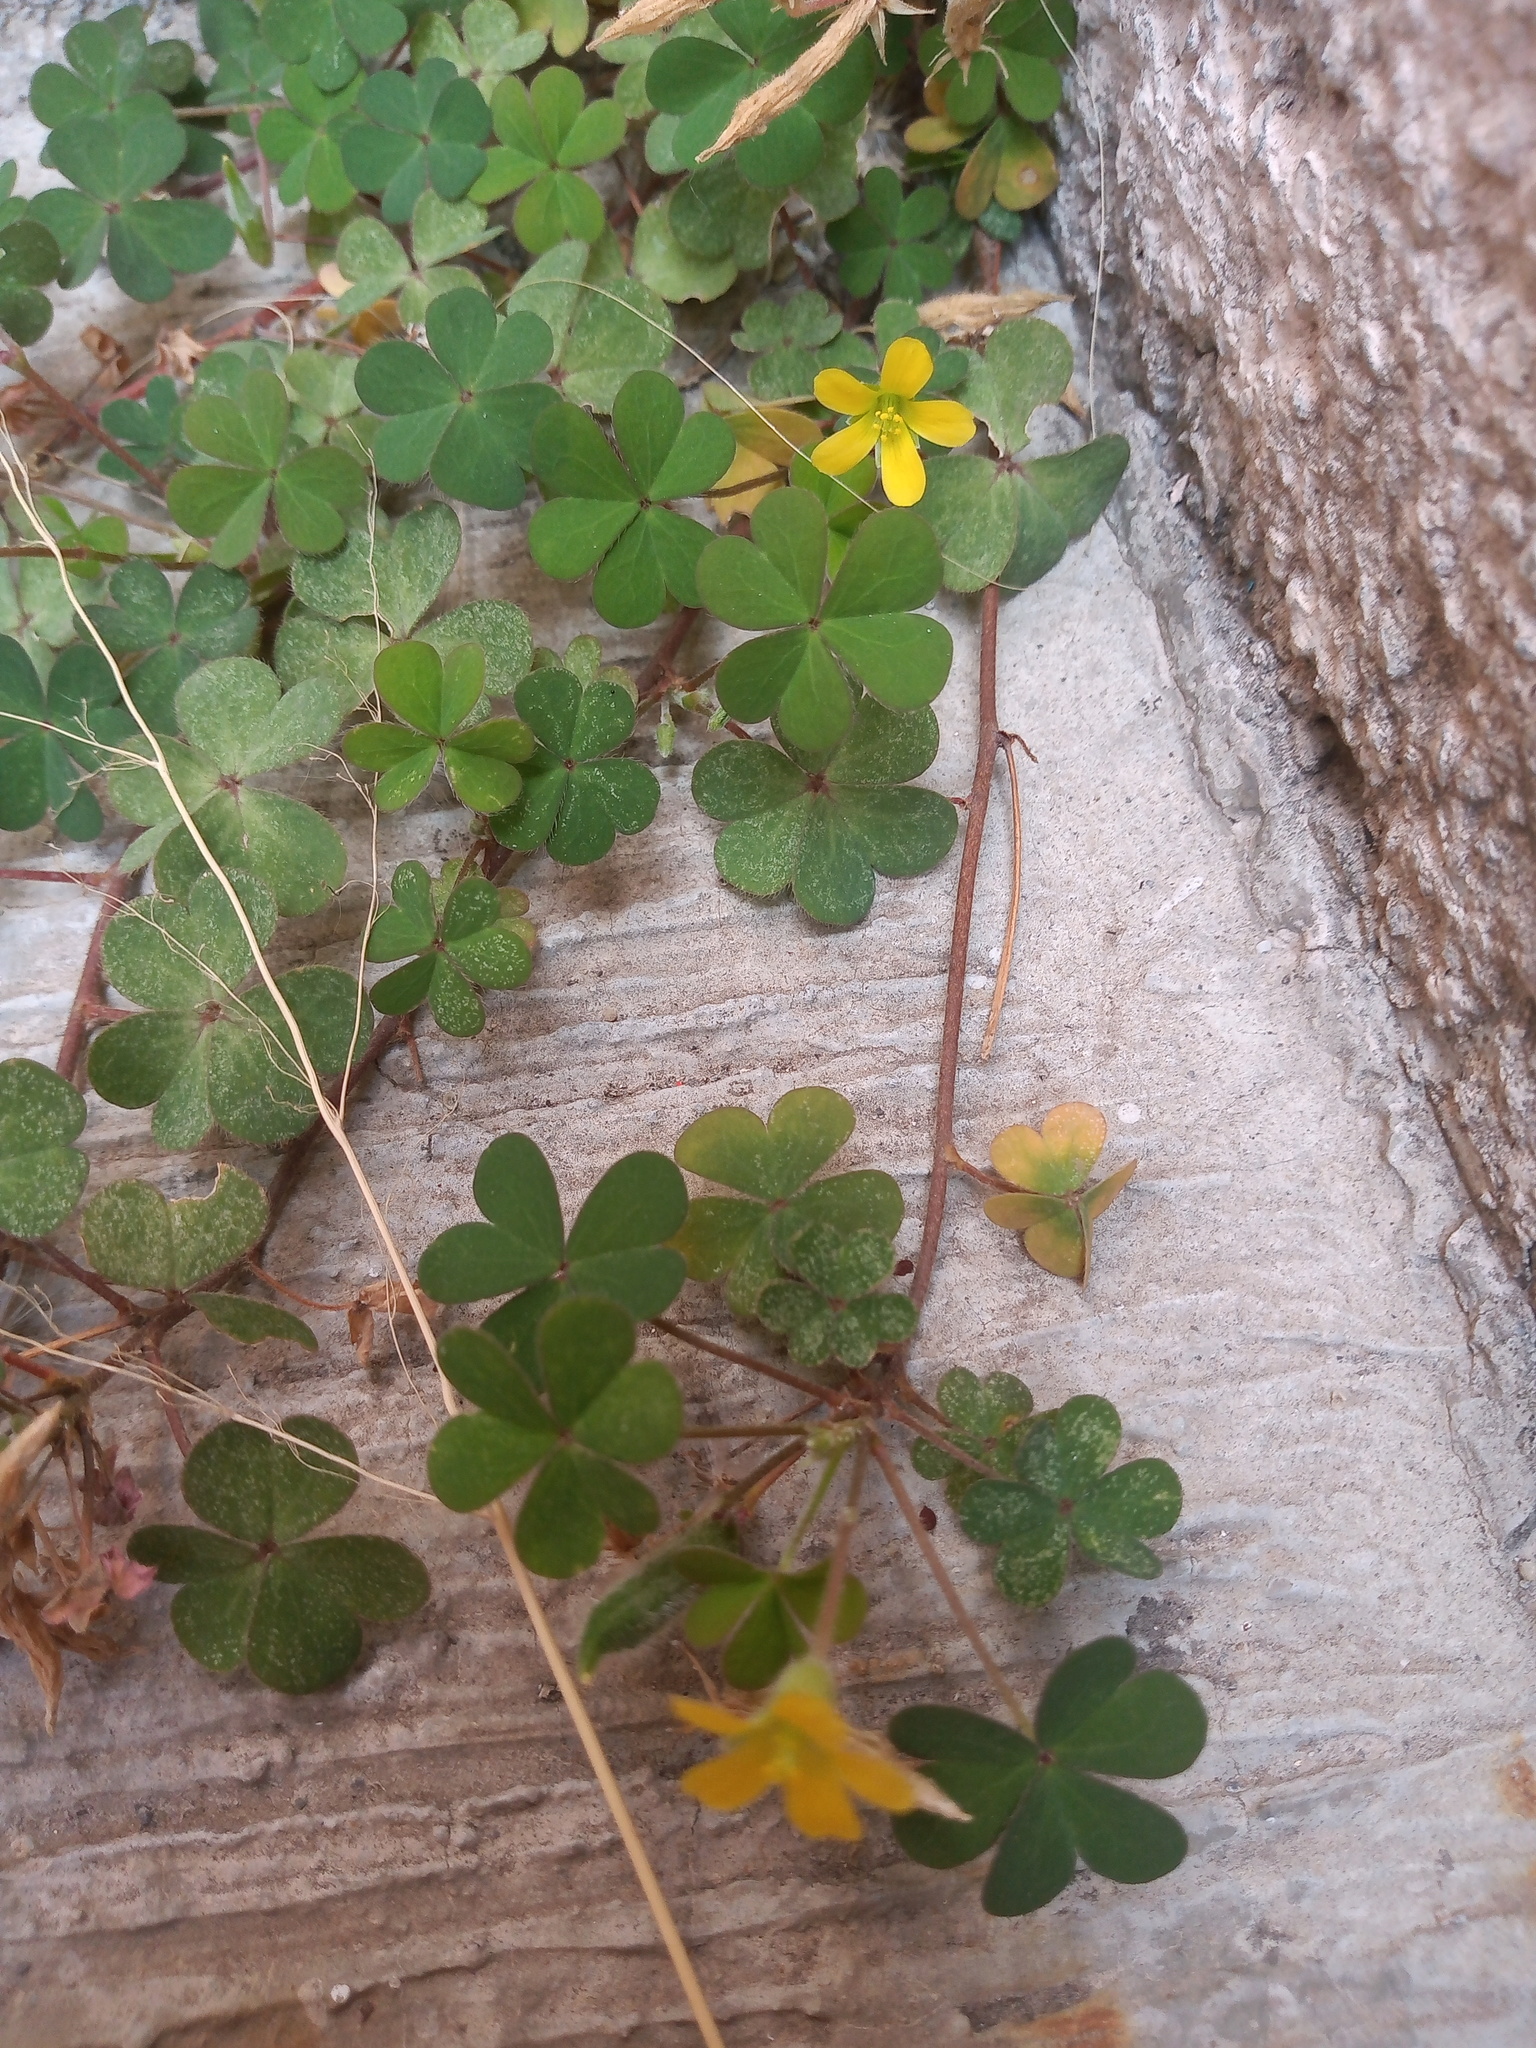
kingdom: Plantae
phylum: Tracheophyta
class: Magnoliopsida
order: Oxalidales
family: Oxalidaceae
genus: Oxalis
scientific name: Oxalis corniculata
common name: Procumbent yellow-sorrel
